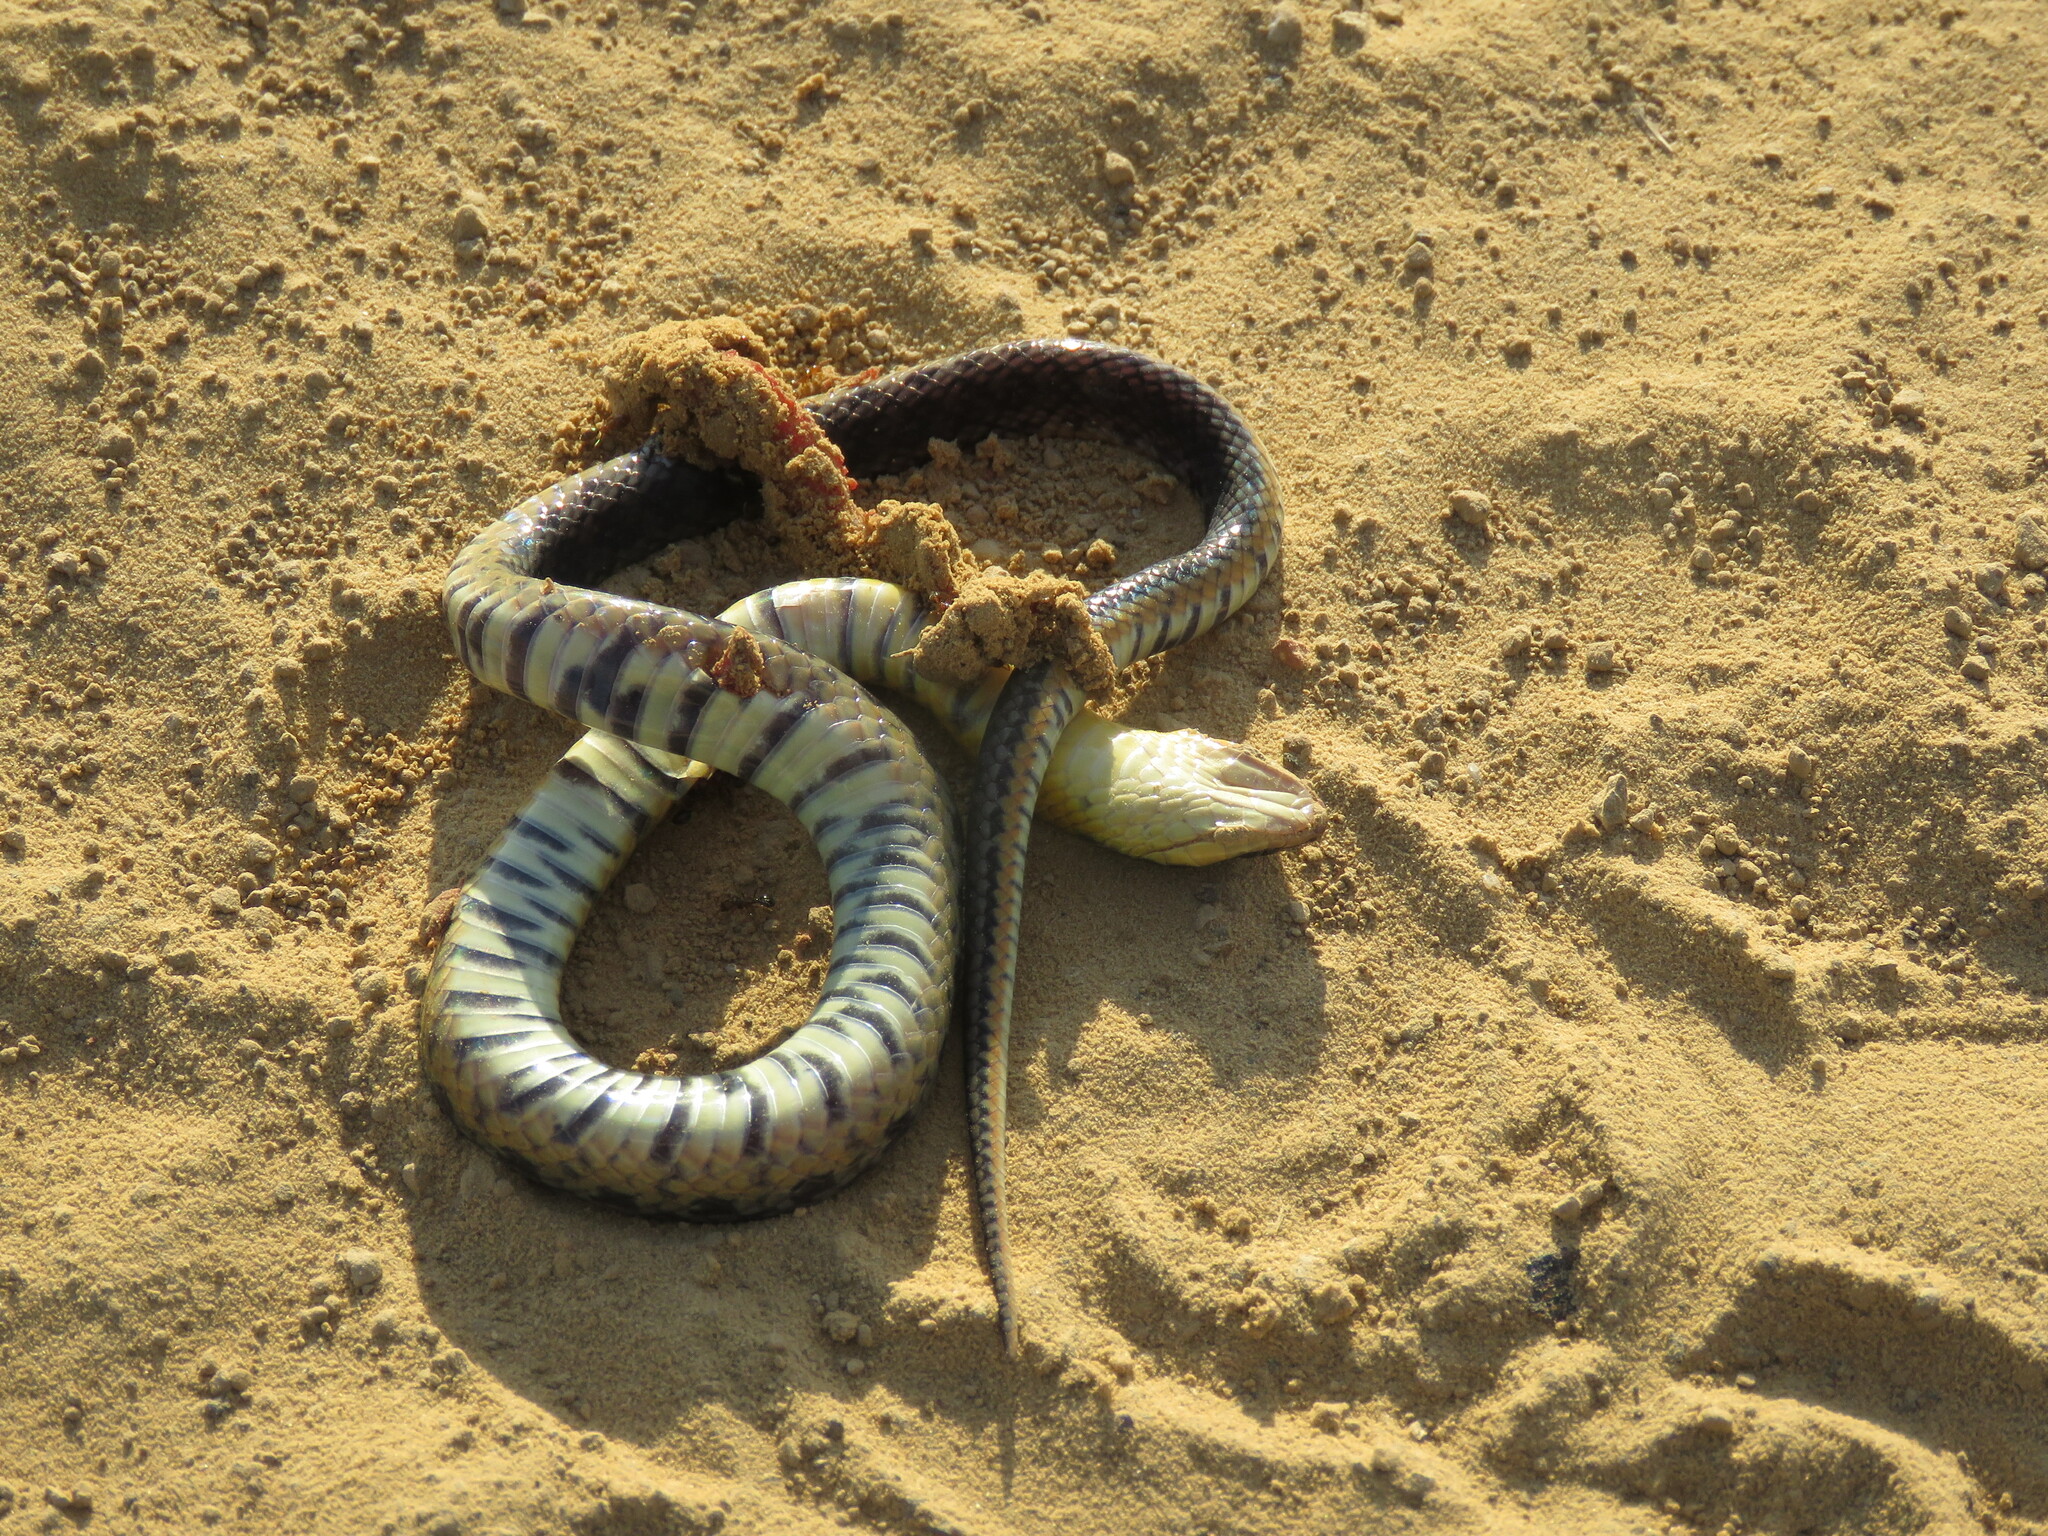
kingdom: Animalia
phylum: Chordata
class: Squamata
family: Colubridae
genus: Erythrolamprus
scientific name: Erythrolamprus poecilogyrus
